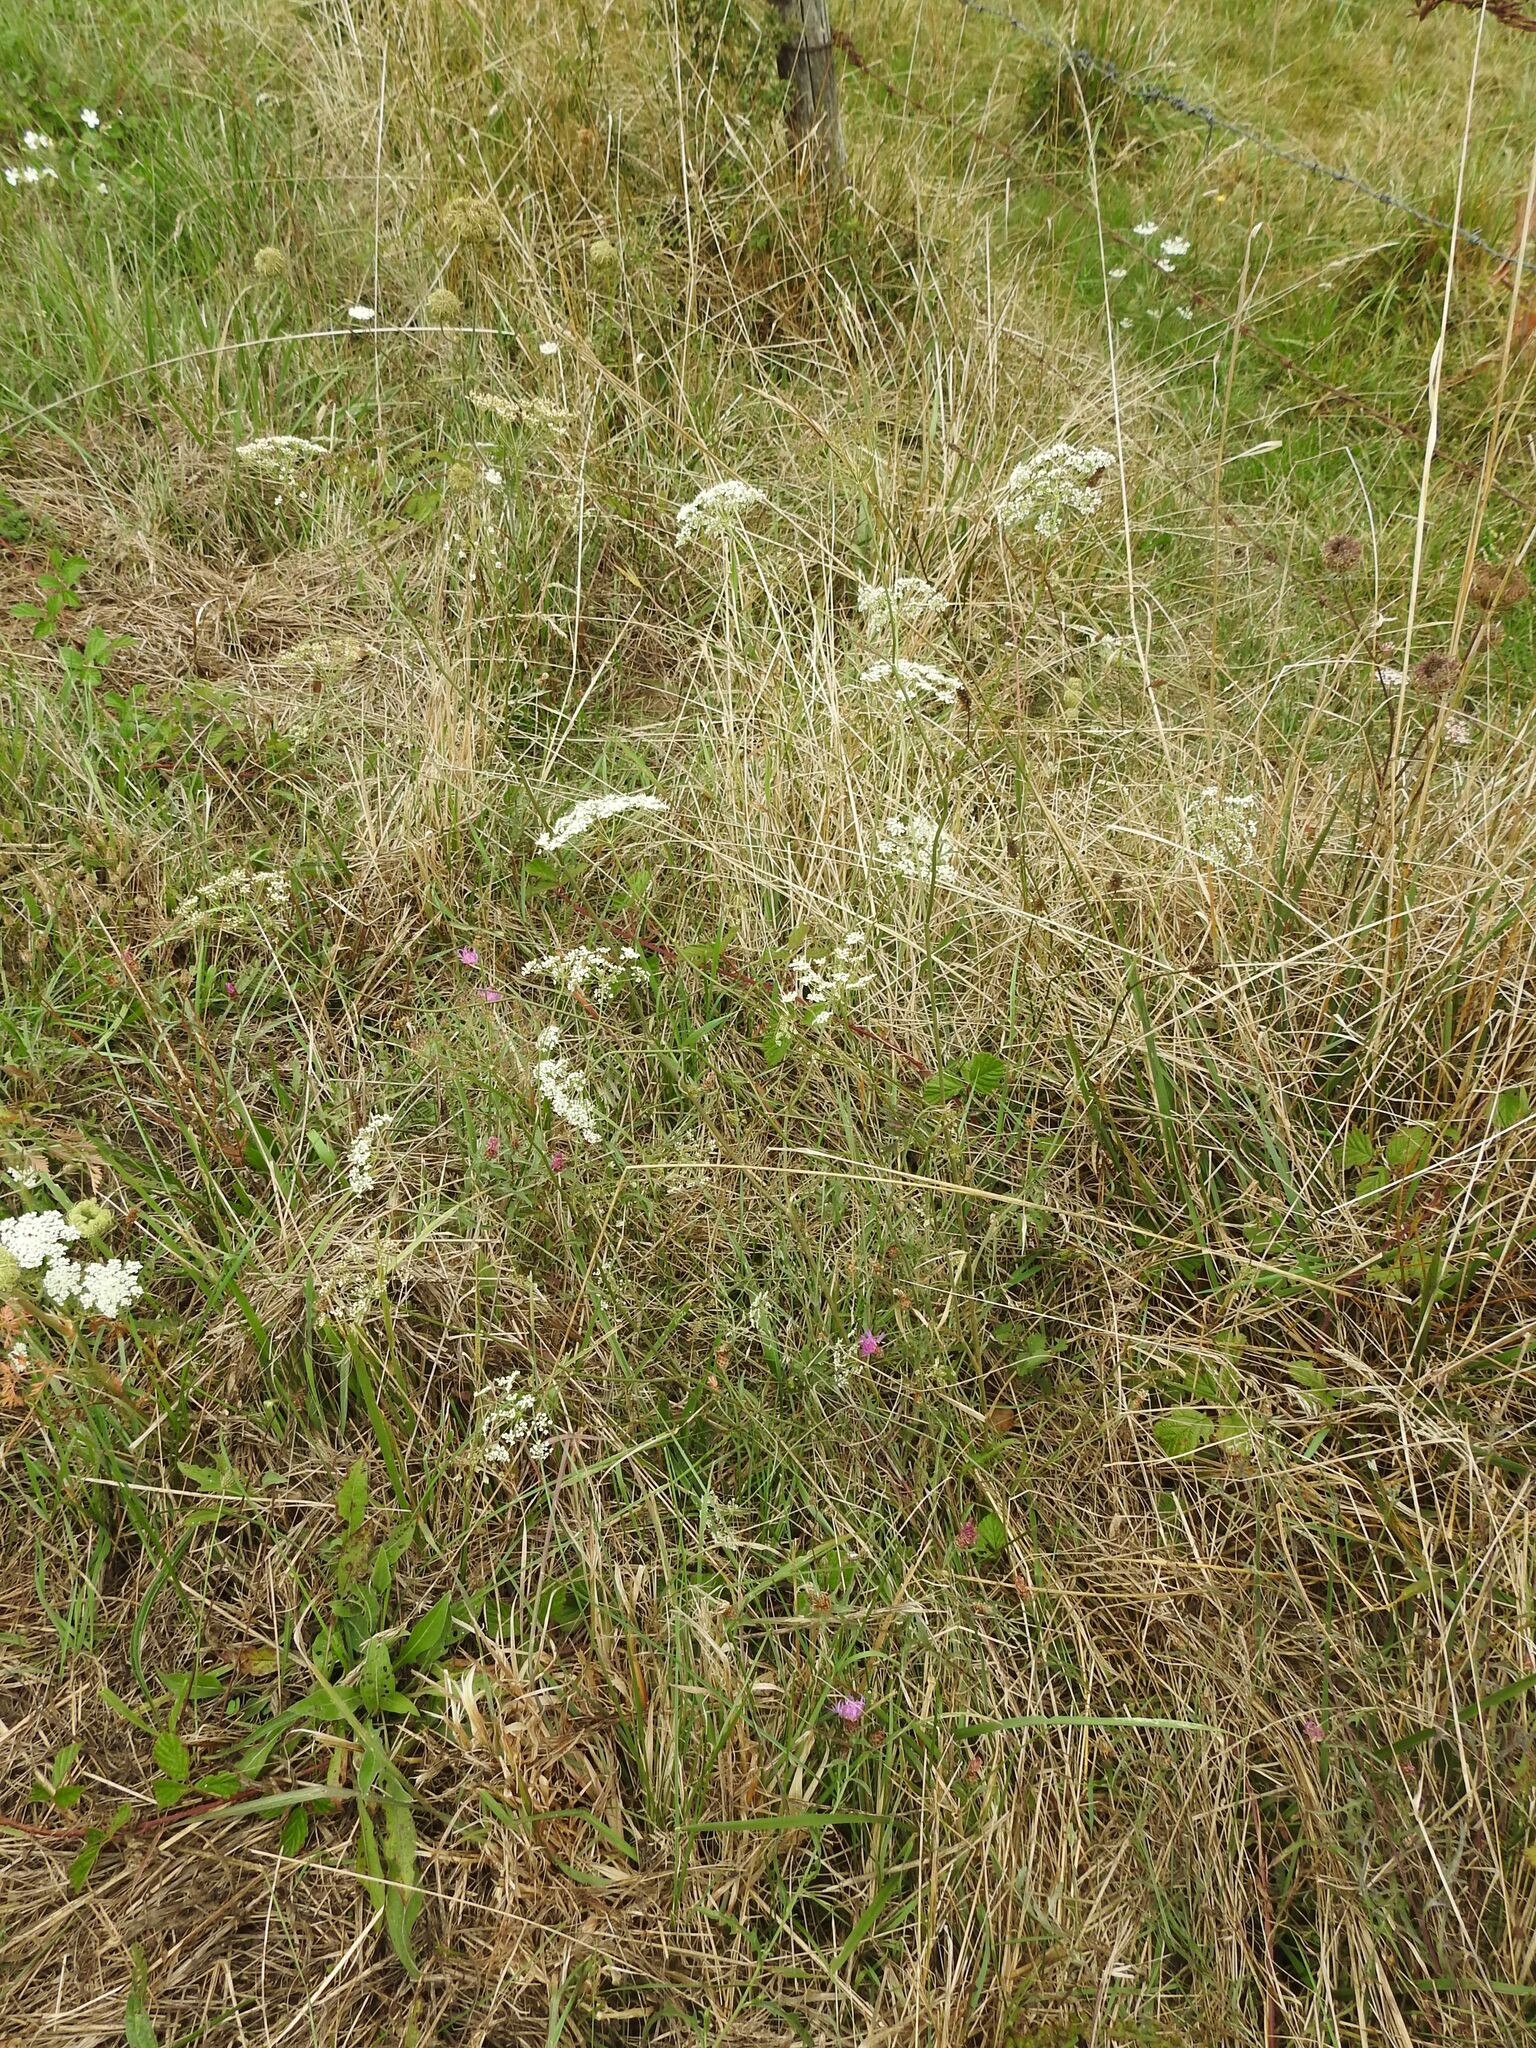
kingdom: Plantae
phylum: Tracheophyta
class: Magnoliopsida
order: Apiales
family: Apiaceae
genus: Pimpinella
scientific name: Pimpinella saxifraga
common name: Burnet-saxifrage
